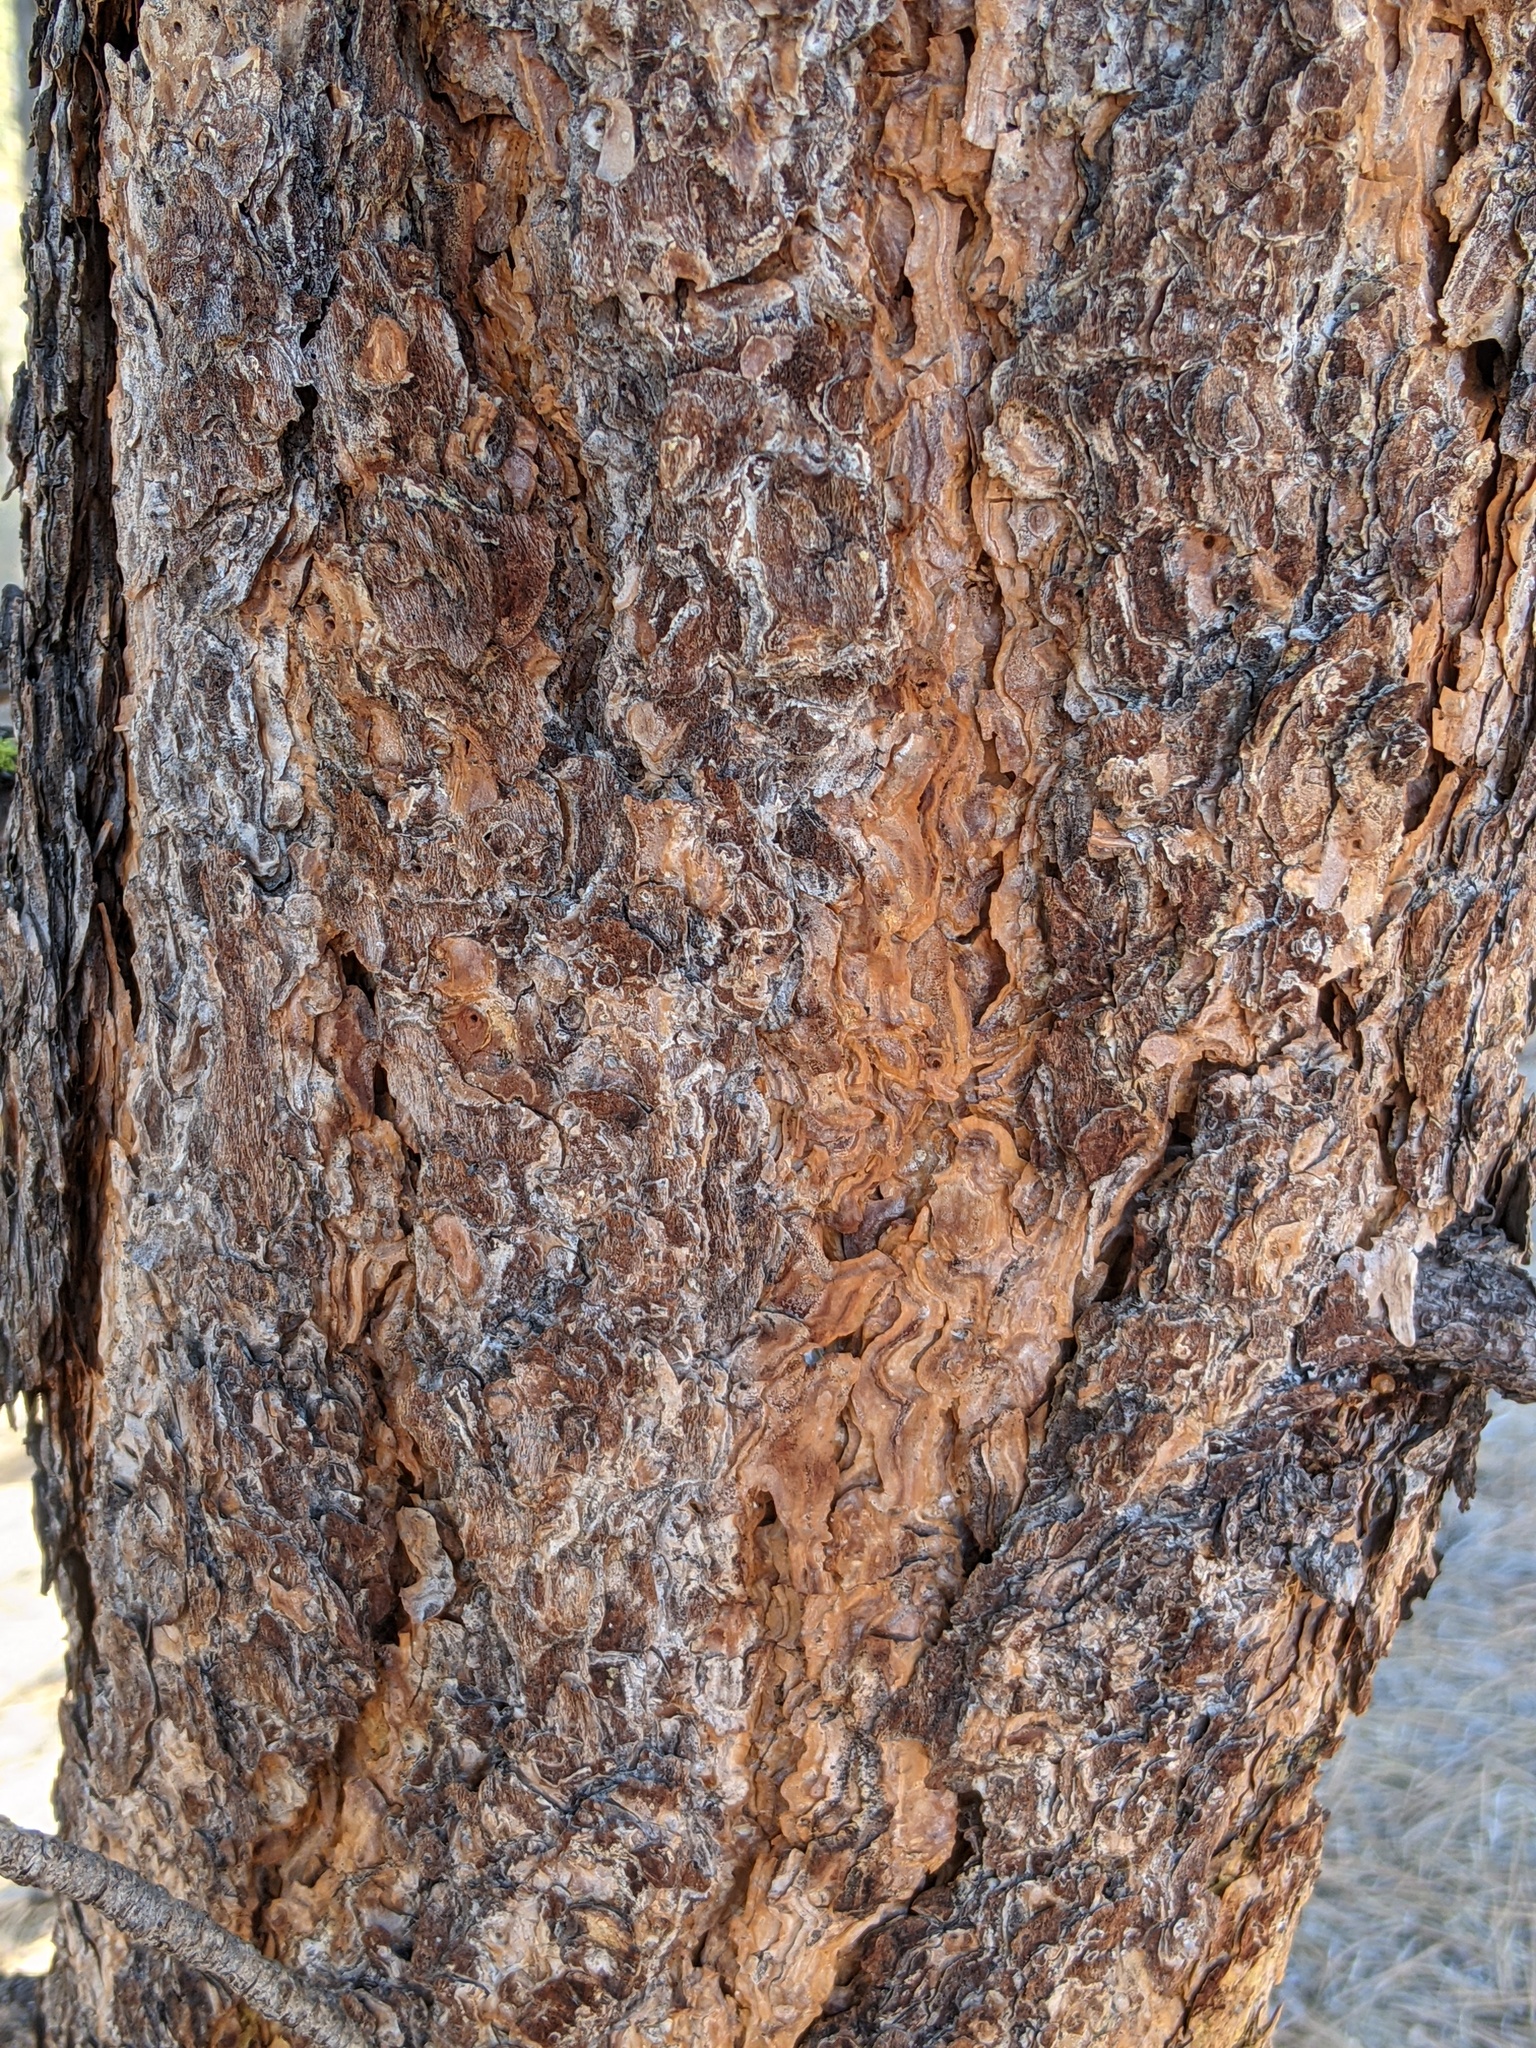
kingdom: Plantae
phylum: Tracheophyta
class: Pinopsida
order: Pinales
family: Pinaceae
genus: Pinus
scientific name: Pinus ponderosa
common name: Western yellow-pine
